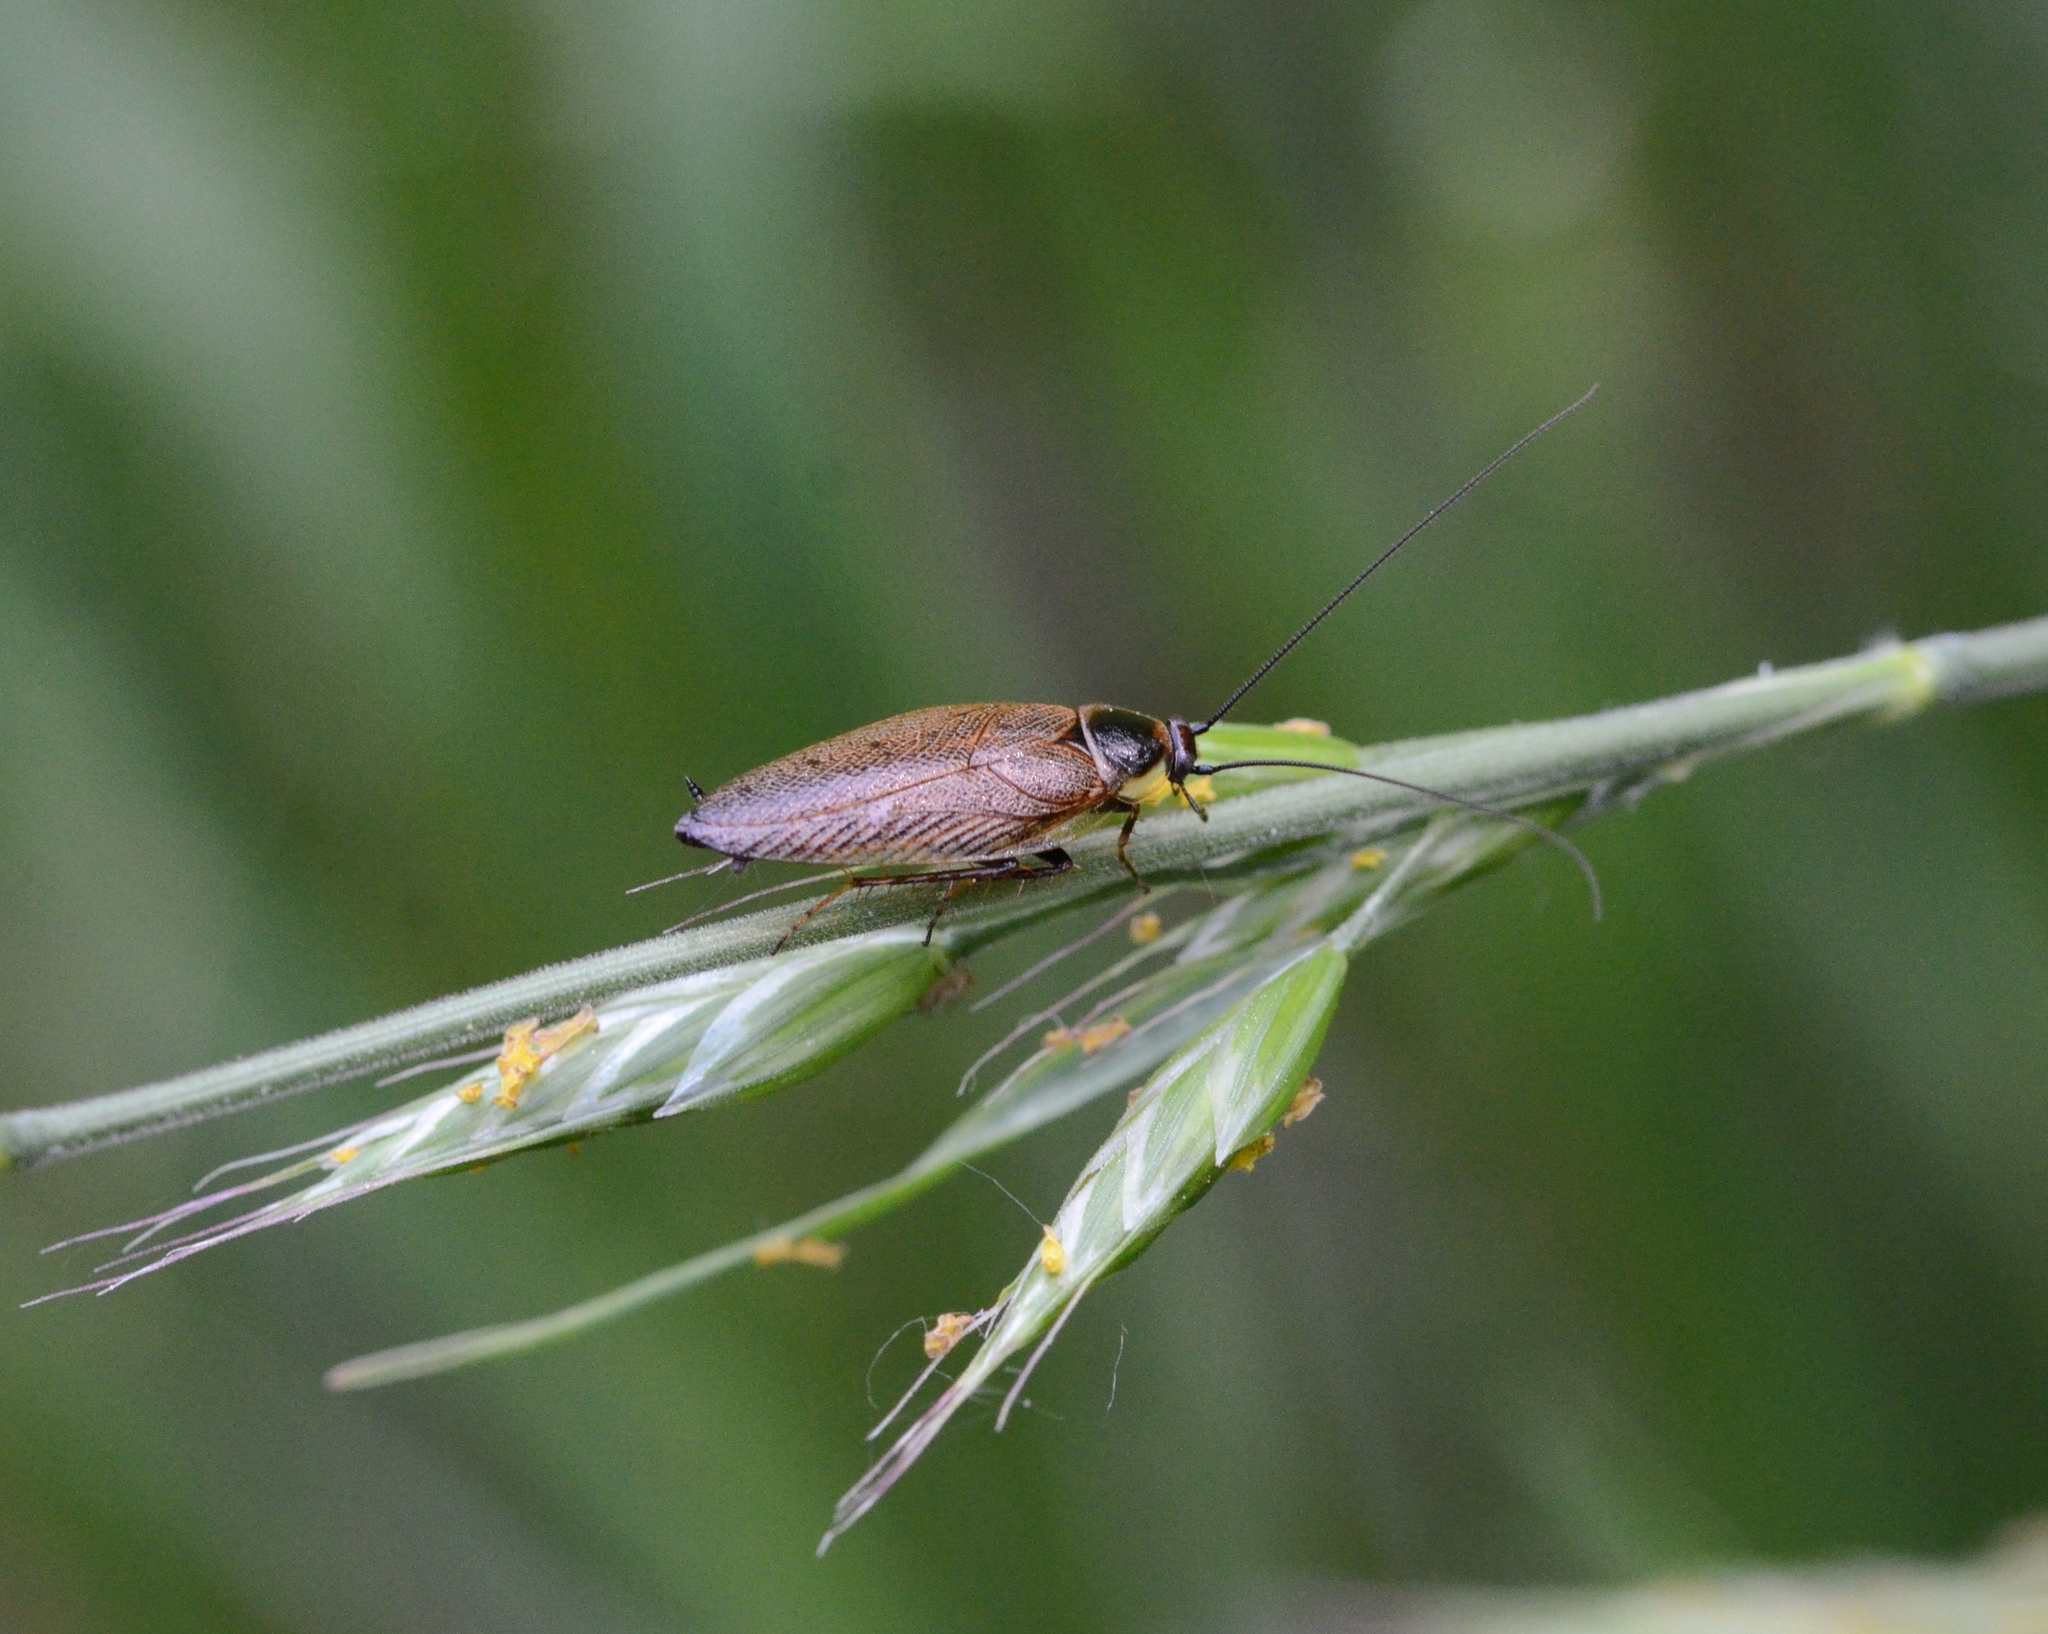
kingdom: Animalia
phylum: Arthropoda
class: Insecta
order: Blattodea
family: Ectobiidae
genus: Ectobius
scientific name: Ectobius lapponicus
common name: Dusky cockroach
